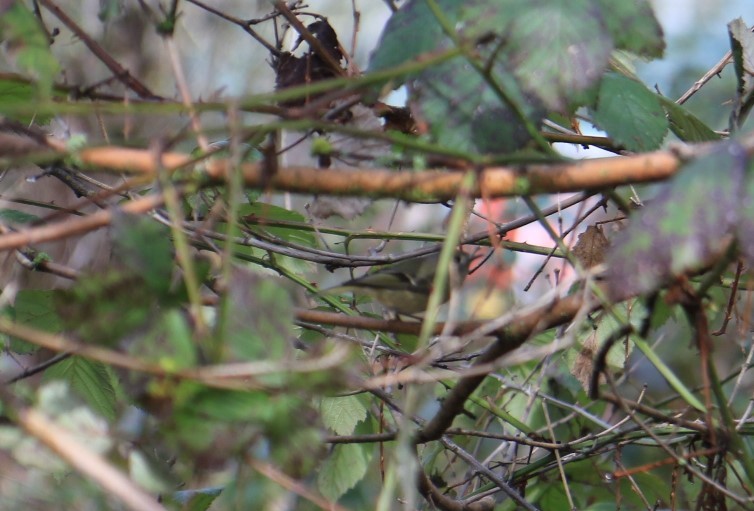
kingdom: Animalia
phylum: Chordata
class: Aves
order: Passeriformes
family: Regulidae
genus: Regulus
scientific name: Regulus calendula
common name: Ruby-crowned kinglet
